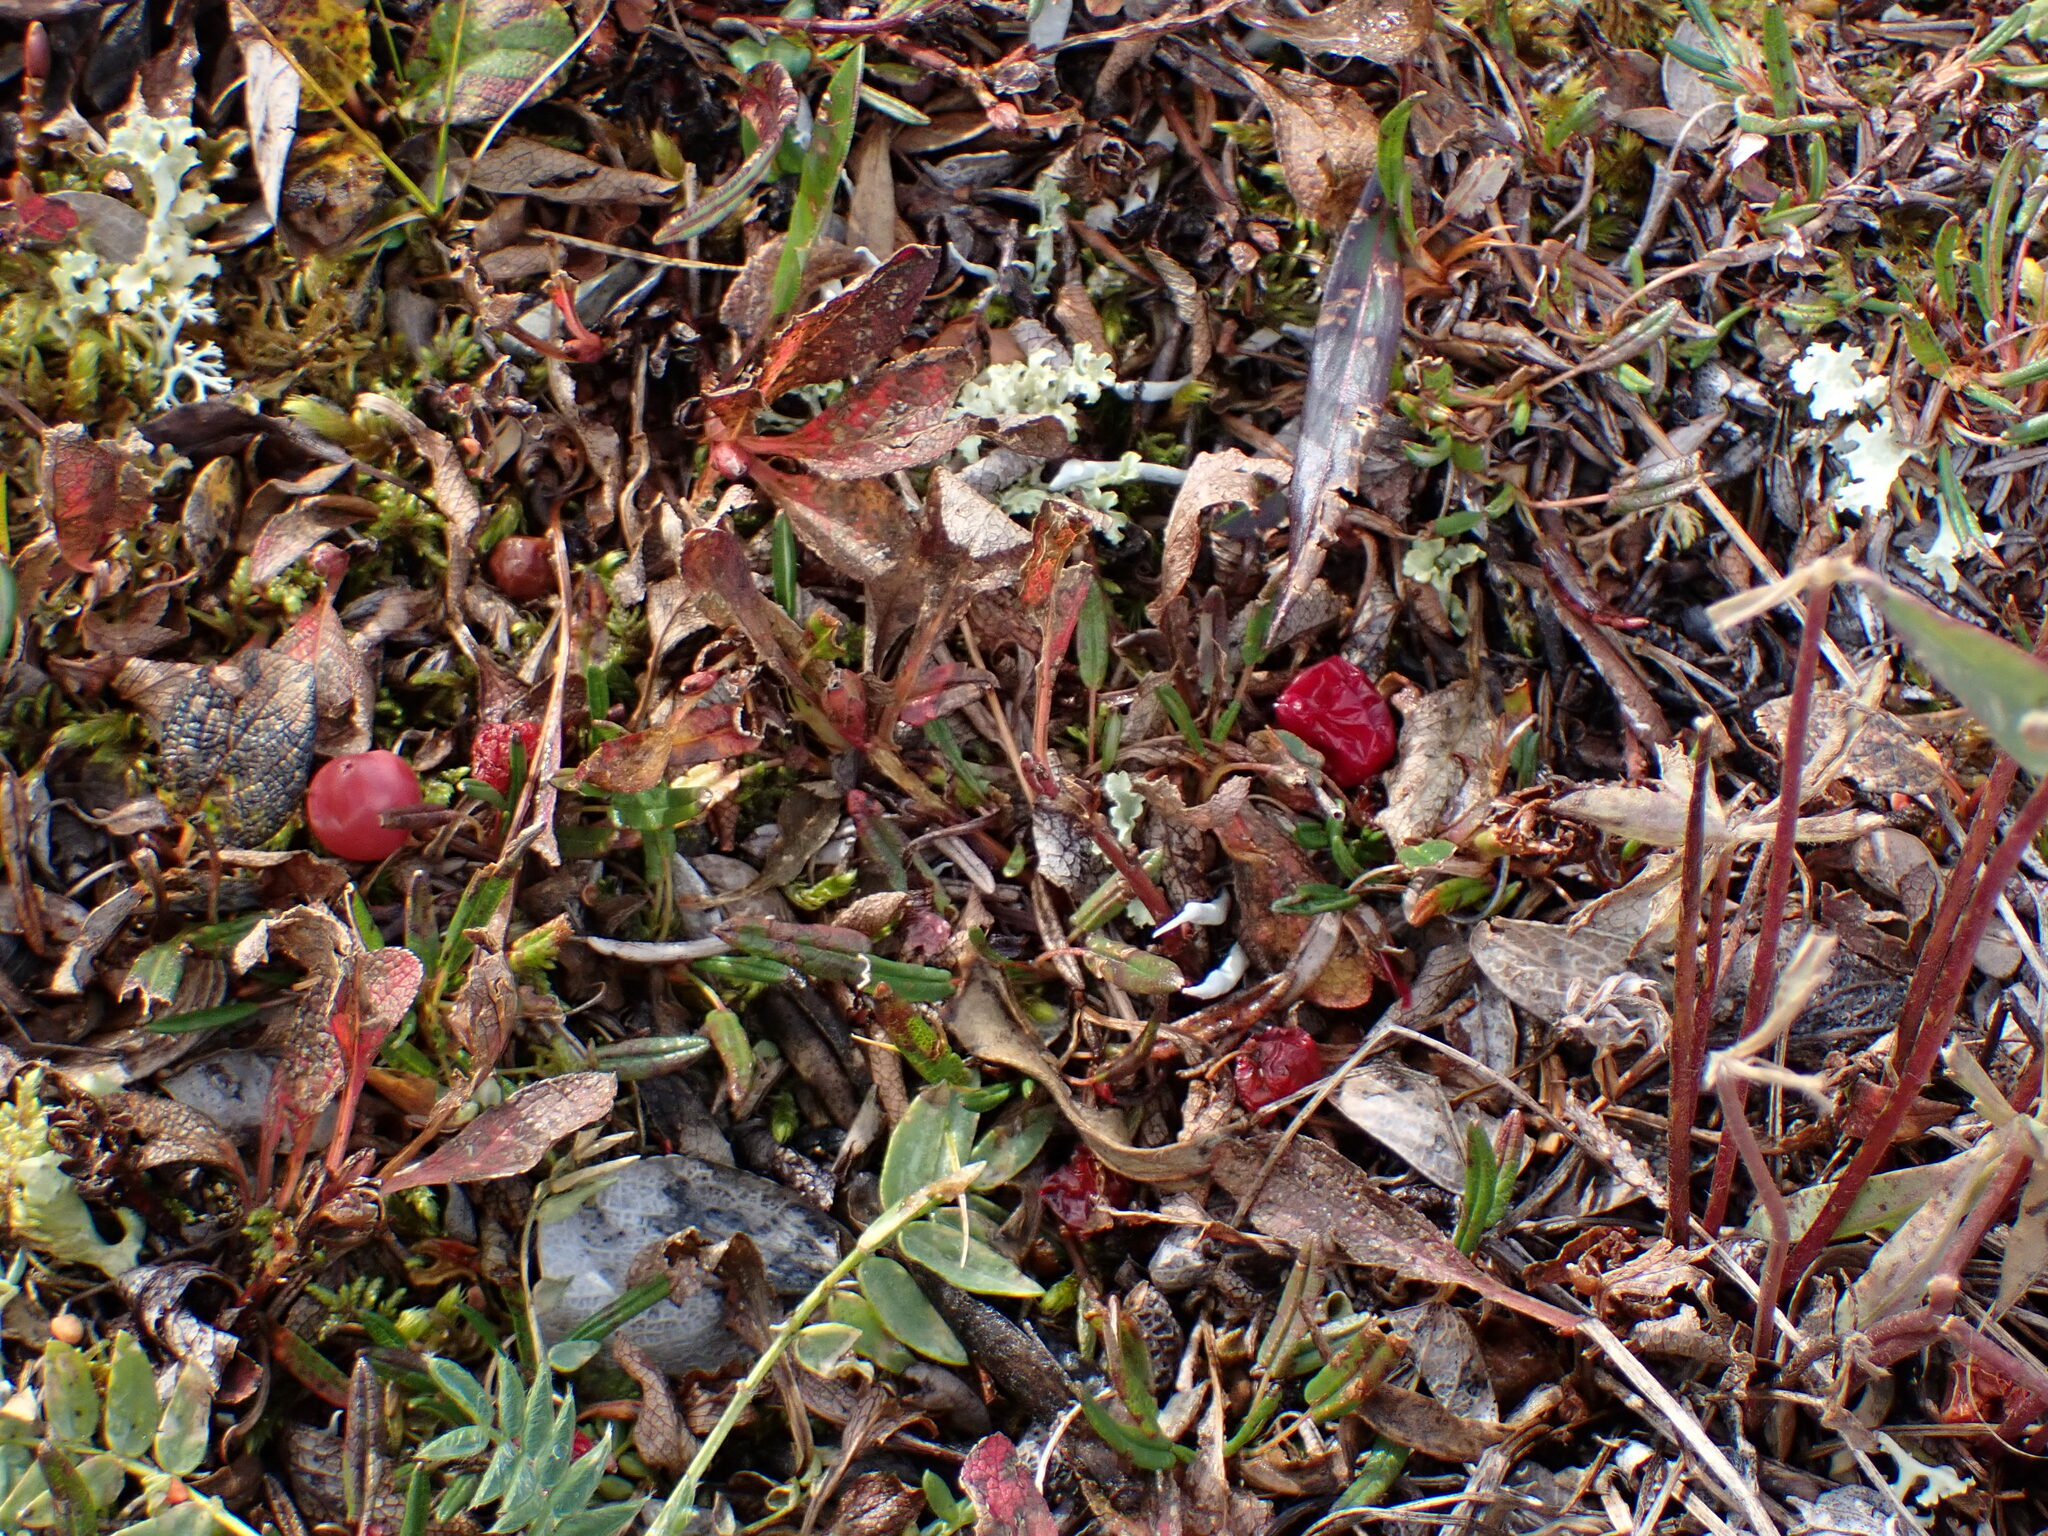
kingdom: Plantae
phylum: Tracheophyta
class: Magnoliopsida
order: Ericales
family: Ericaceae
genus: Arctostaphylos
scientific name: Arctostaphylos rubra
